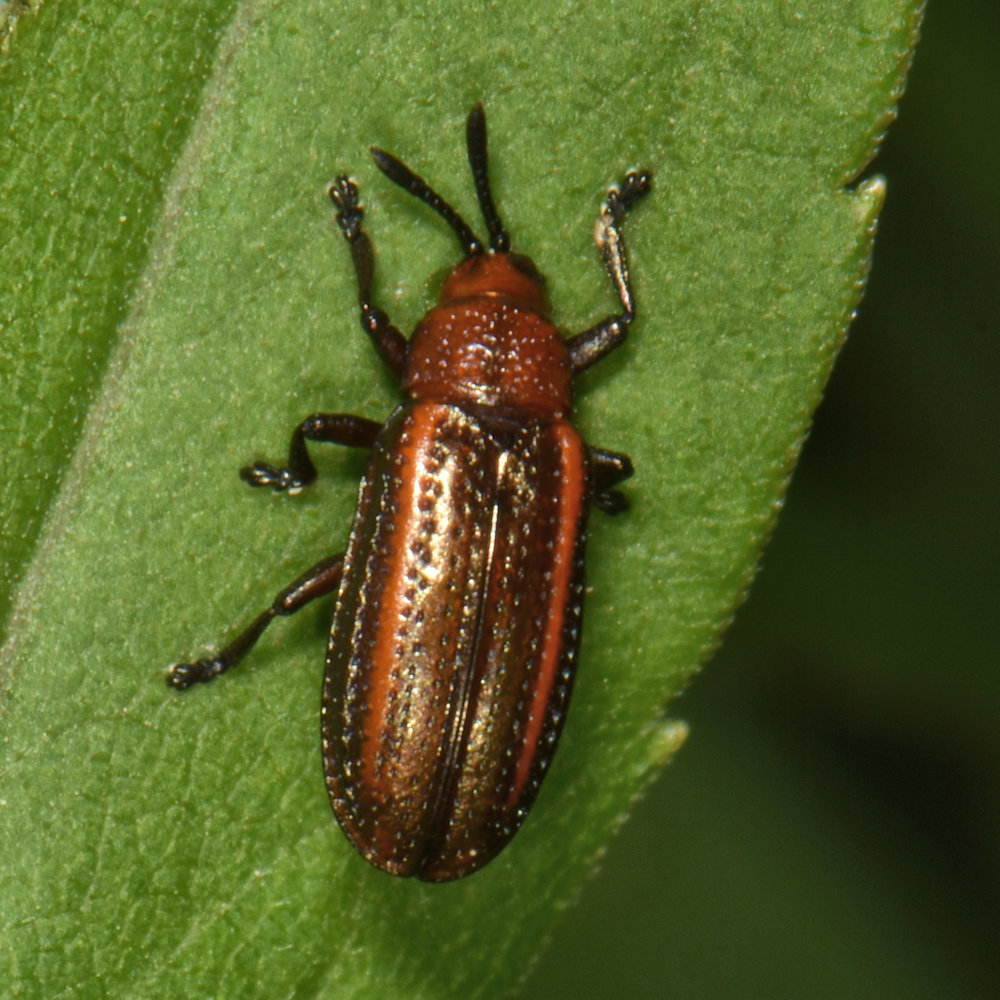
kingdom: Animalia
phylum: Arthropoda
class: Insecta
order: Coleoptera
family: Chrysomelidae
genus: Microrhopala
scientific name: Microrhopala vittata
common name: Goldenrod leaf miner beetle
